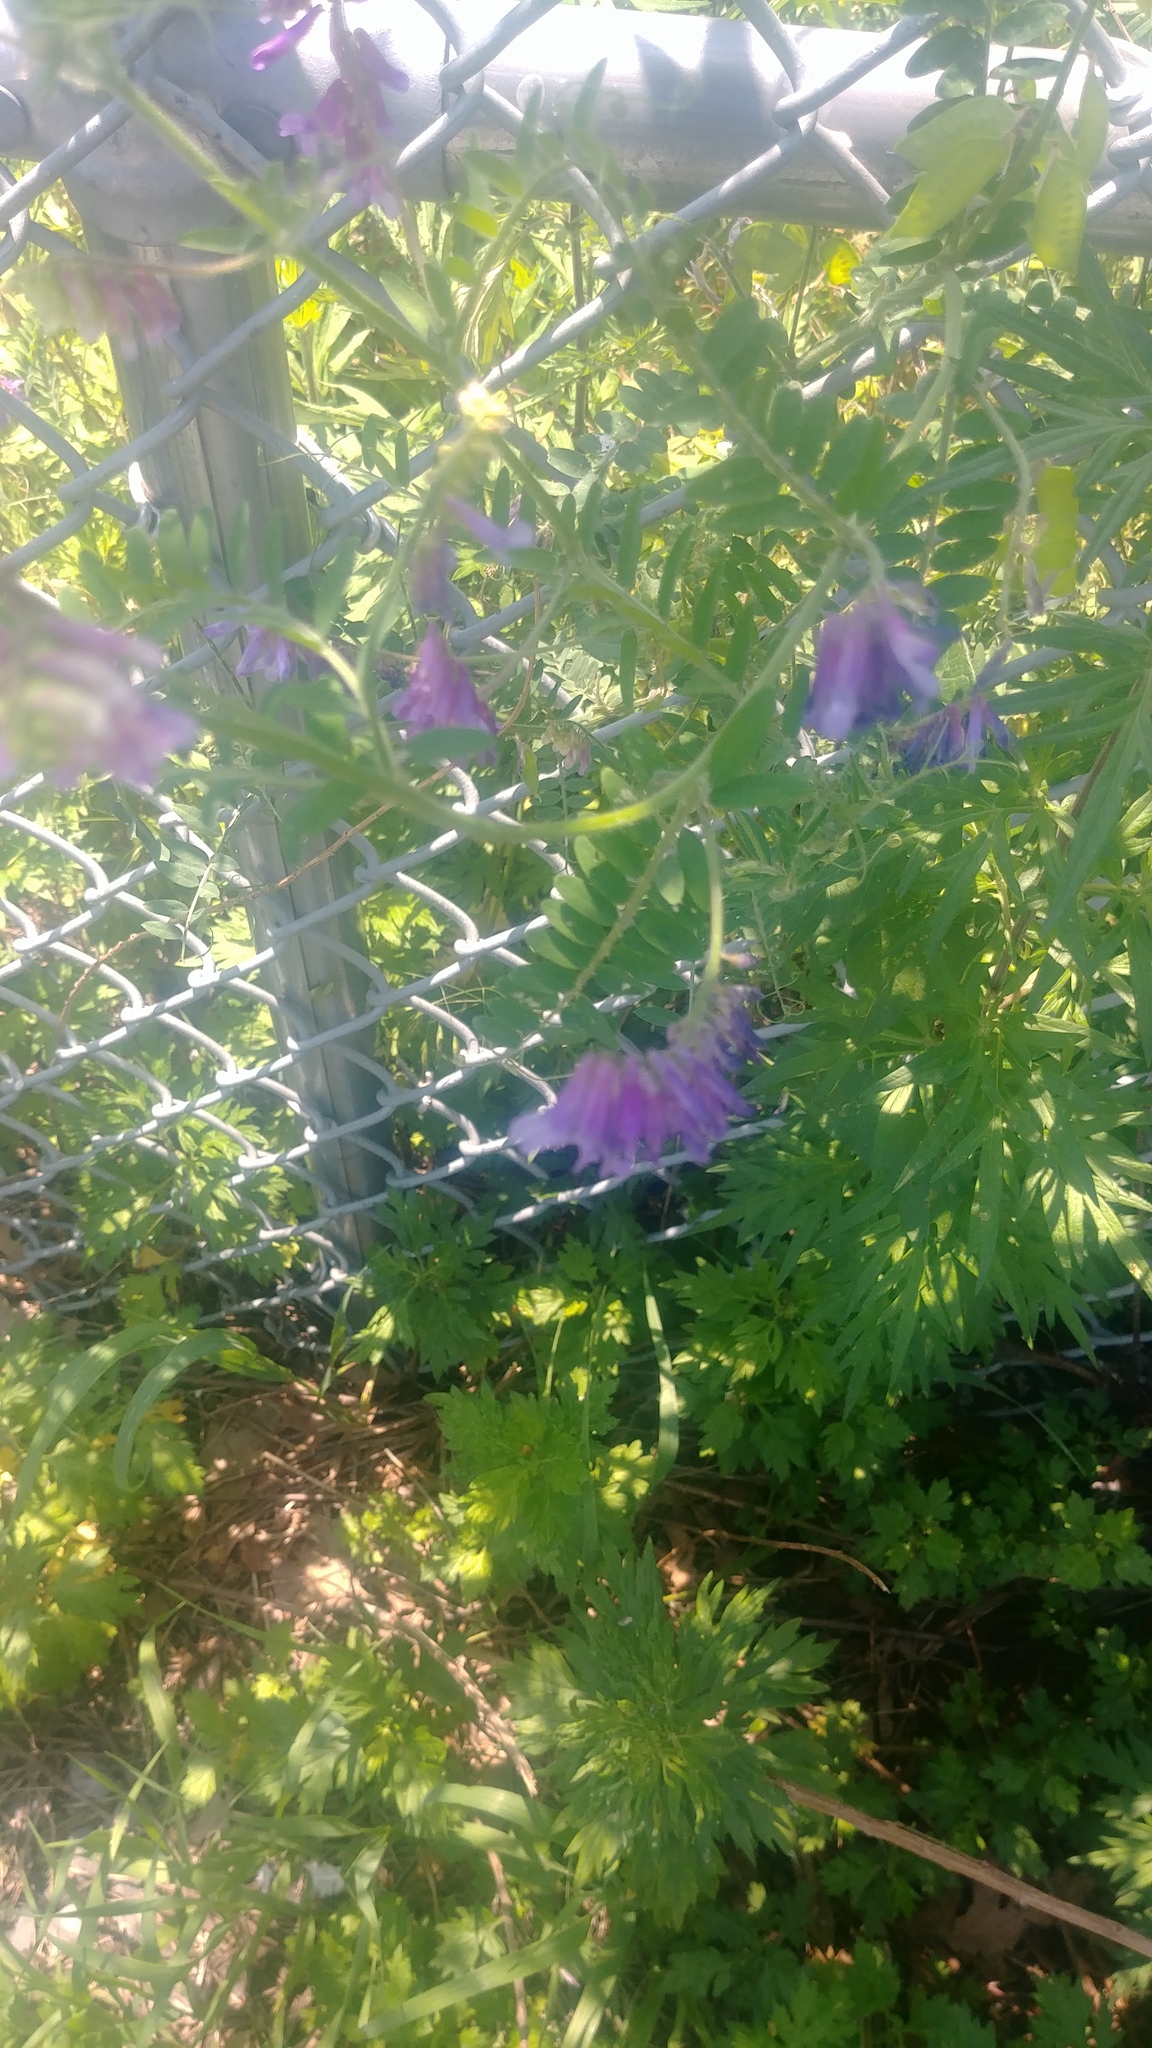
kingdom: Plantae
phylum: Tracheophyta
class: Magnoliopsida
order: Fabales
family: Fabaceae
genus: Vicia
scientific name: Vicia villosa
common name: Fodder vetch
